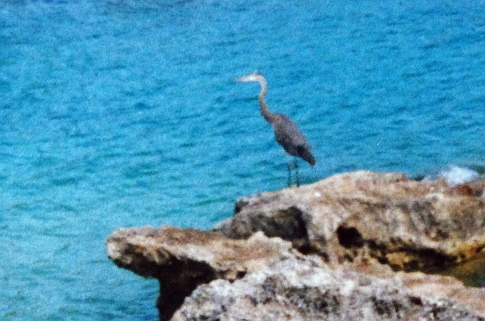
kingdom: Animalia
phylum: Chordata
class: Aves
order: Pelecaniformes
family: Ardeidae
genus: Ardea
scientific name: Ardea herodias
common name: Great blue heron
